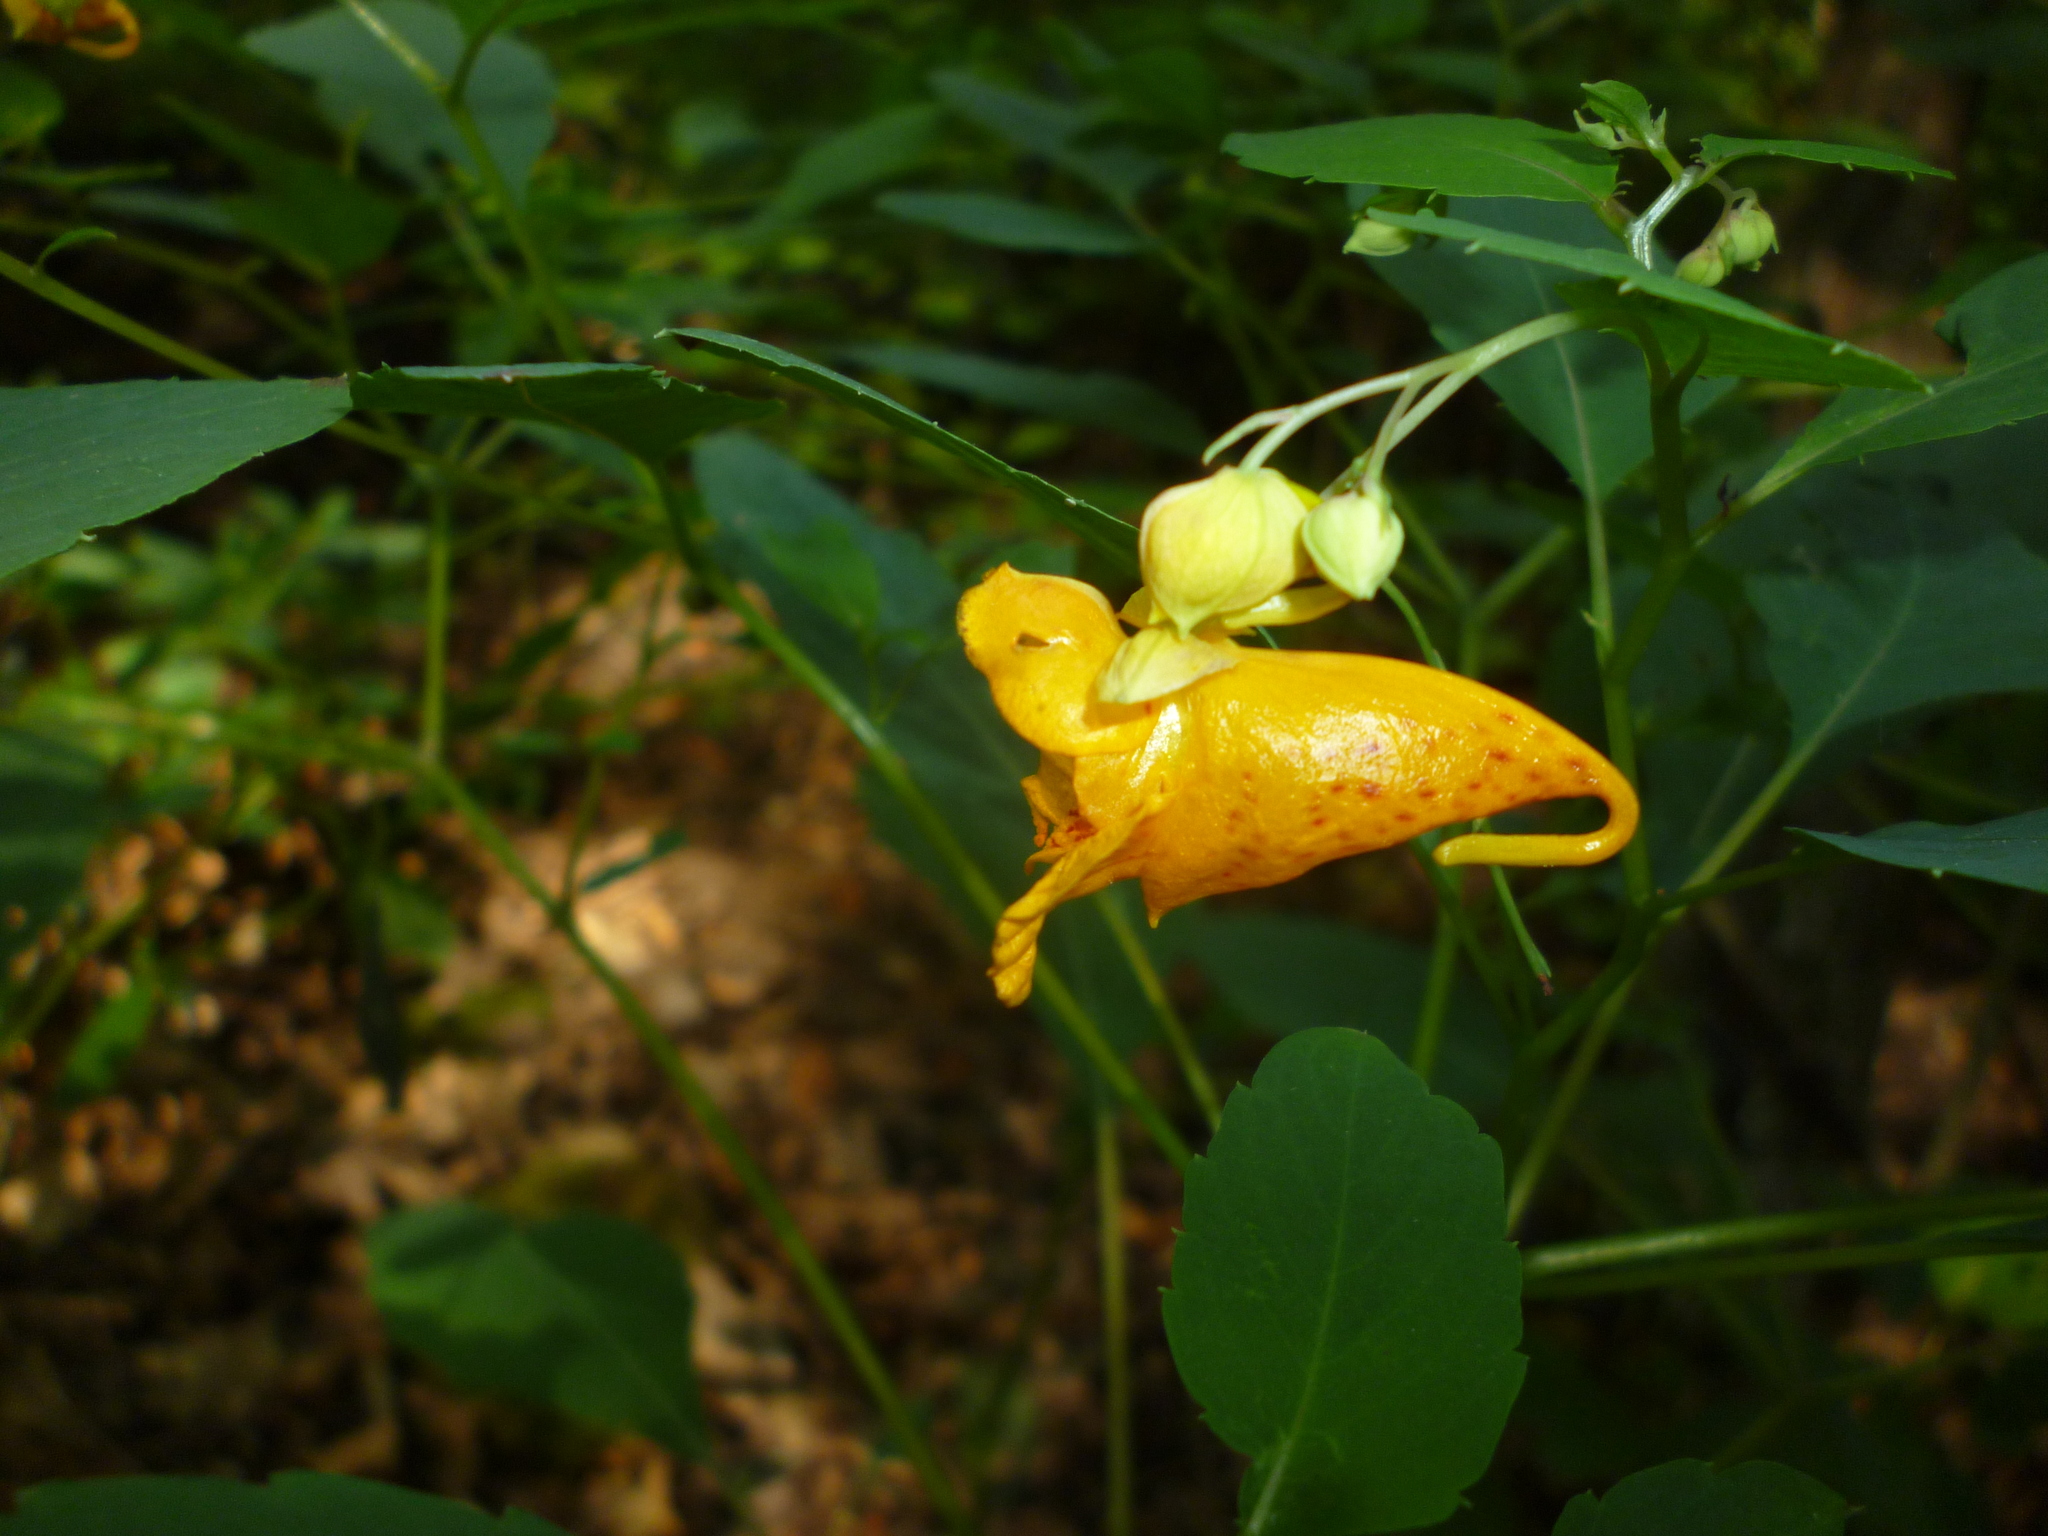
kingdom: Plantae
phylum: Tracheophyta
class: Magnoliopsida
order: Ericales
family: Balsaminaceae
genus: Impatiens
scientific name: Impatiens capensis
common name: Orange balsam
